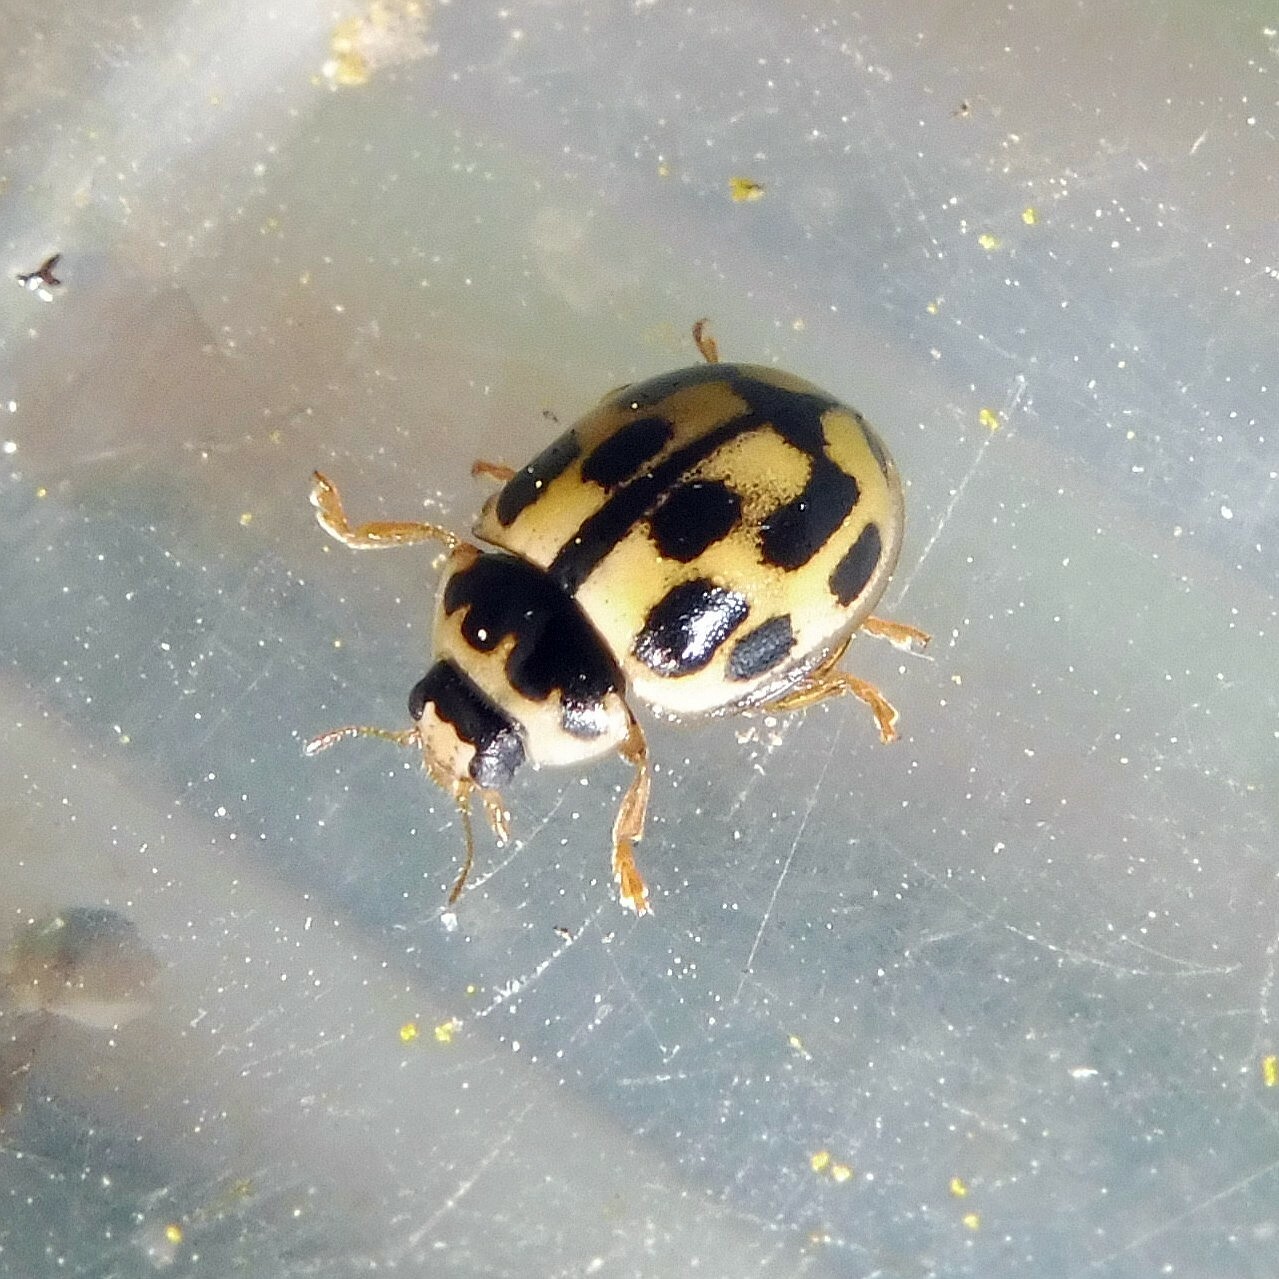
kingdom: Animalia
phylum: Arthropoda
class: Insecta
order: Coleoptera
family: Coccinellidae
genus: Propylaea
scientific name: Propylaea quatuordecimpunctata
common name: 14-spotted ladybird beetle
